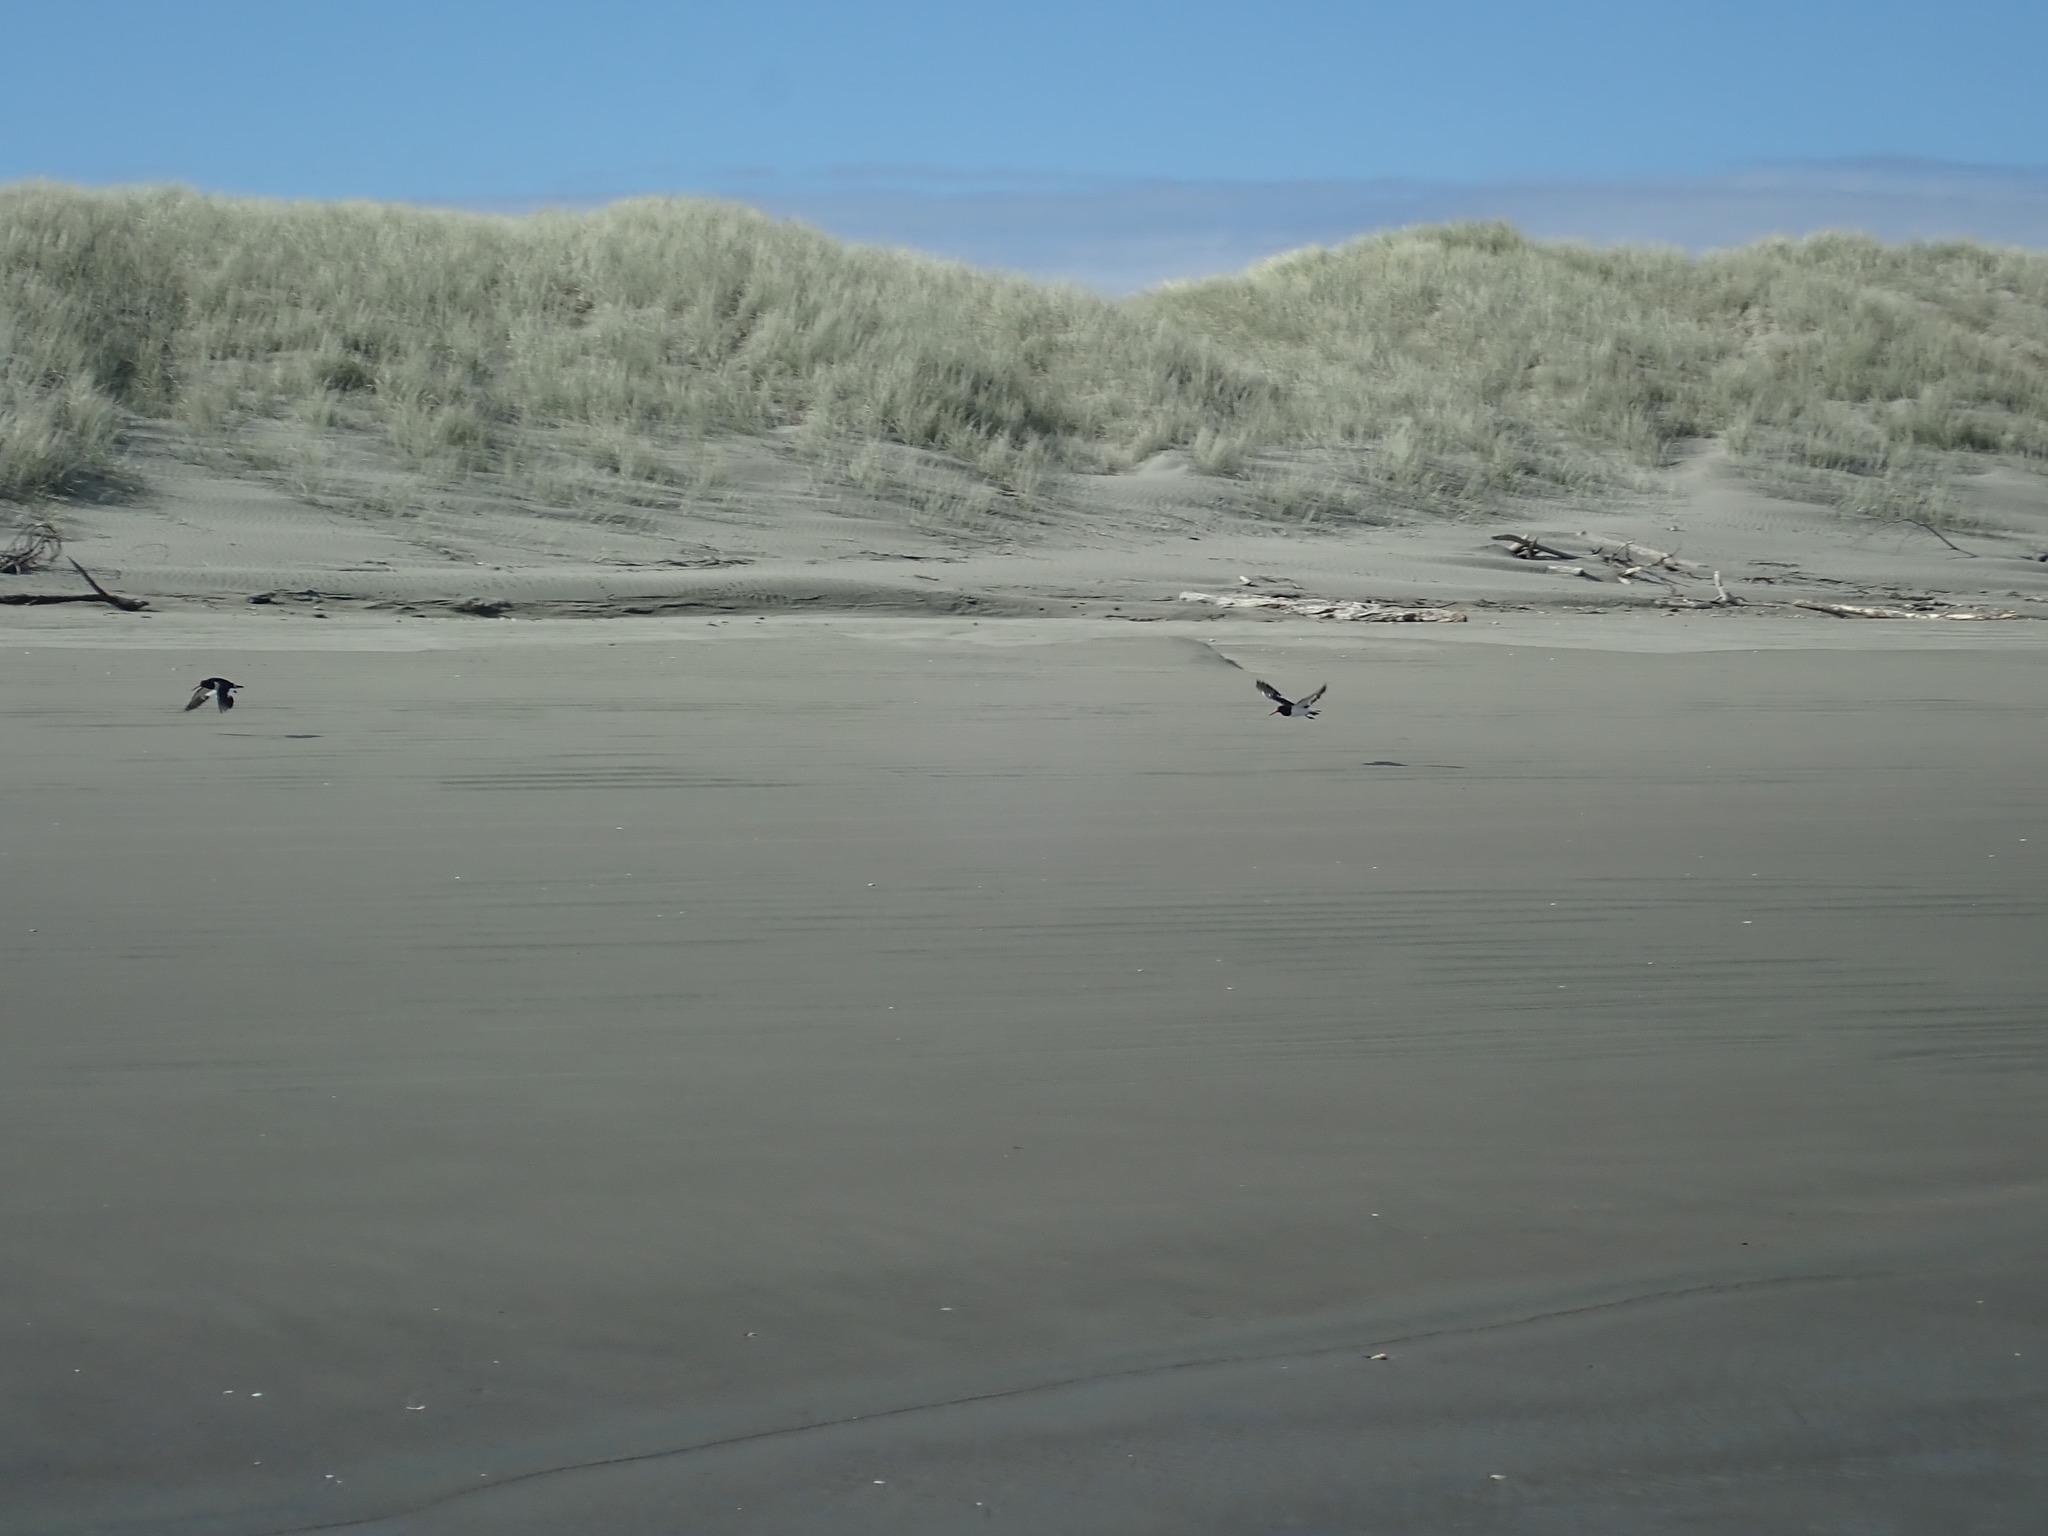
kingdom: Animalia
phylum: Chordata
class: Aves
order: Charadriiformes
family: Haematopodidae
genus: Haematopus
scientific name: Haematopus finschi
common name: South island oystercatcher
